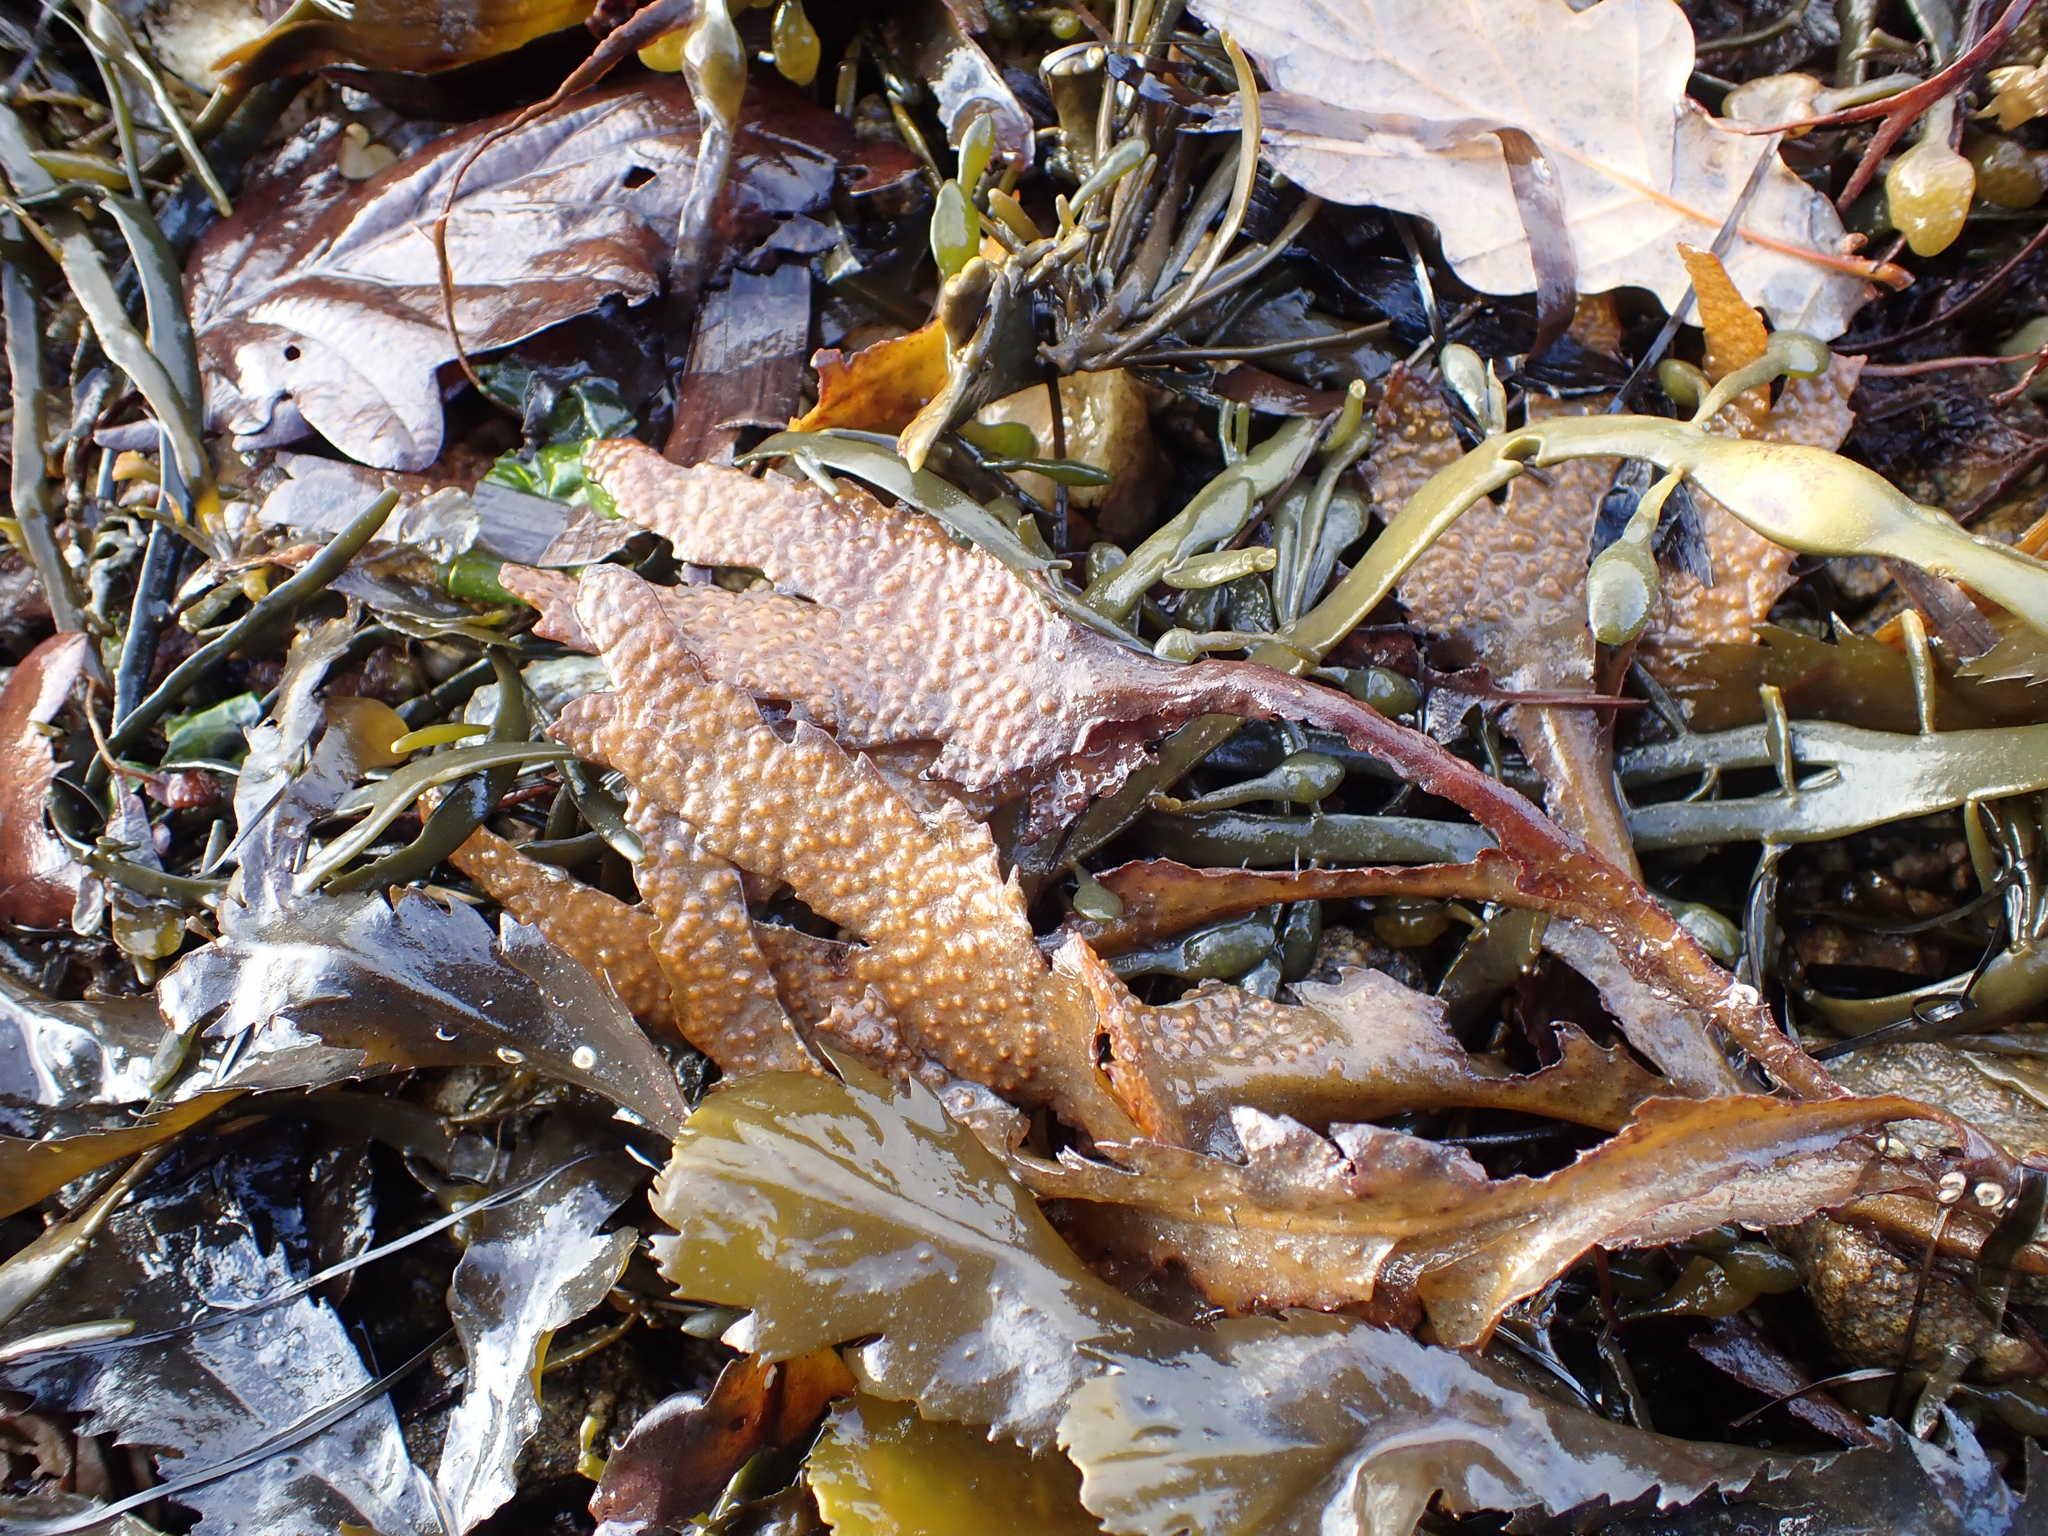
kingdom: Chromista
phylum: Ochrophyta
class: Phaeophyceae
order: Fucales
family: Fucaceae
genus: Fucus
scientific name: Fucus serratus
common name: Toothed wrack
